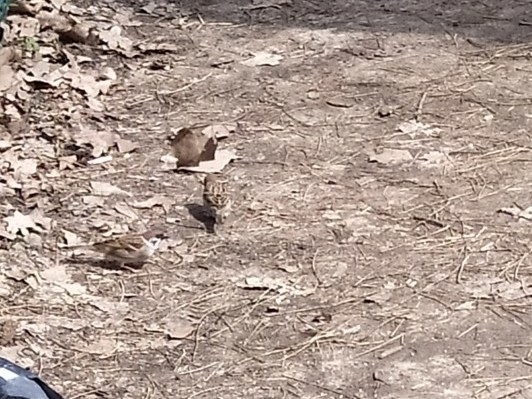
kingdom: Animalia
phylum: Chordata
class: Aves
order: Passeriformes
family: Passeridae
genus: Passer
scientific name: Passer montanus
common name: Eurasian tree sparrow
